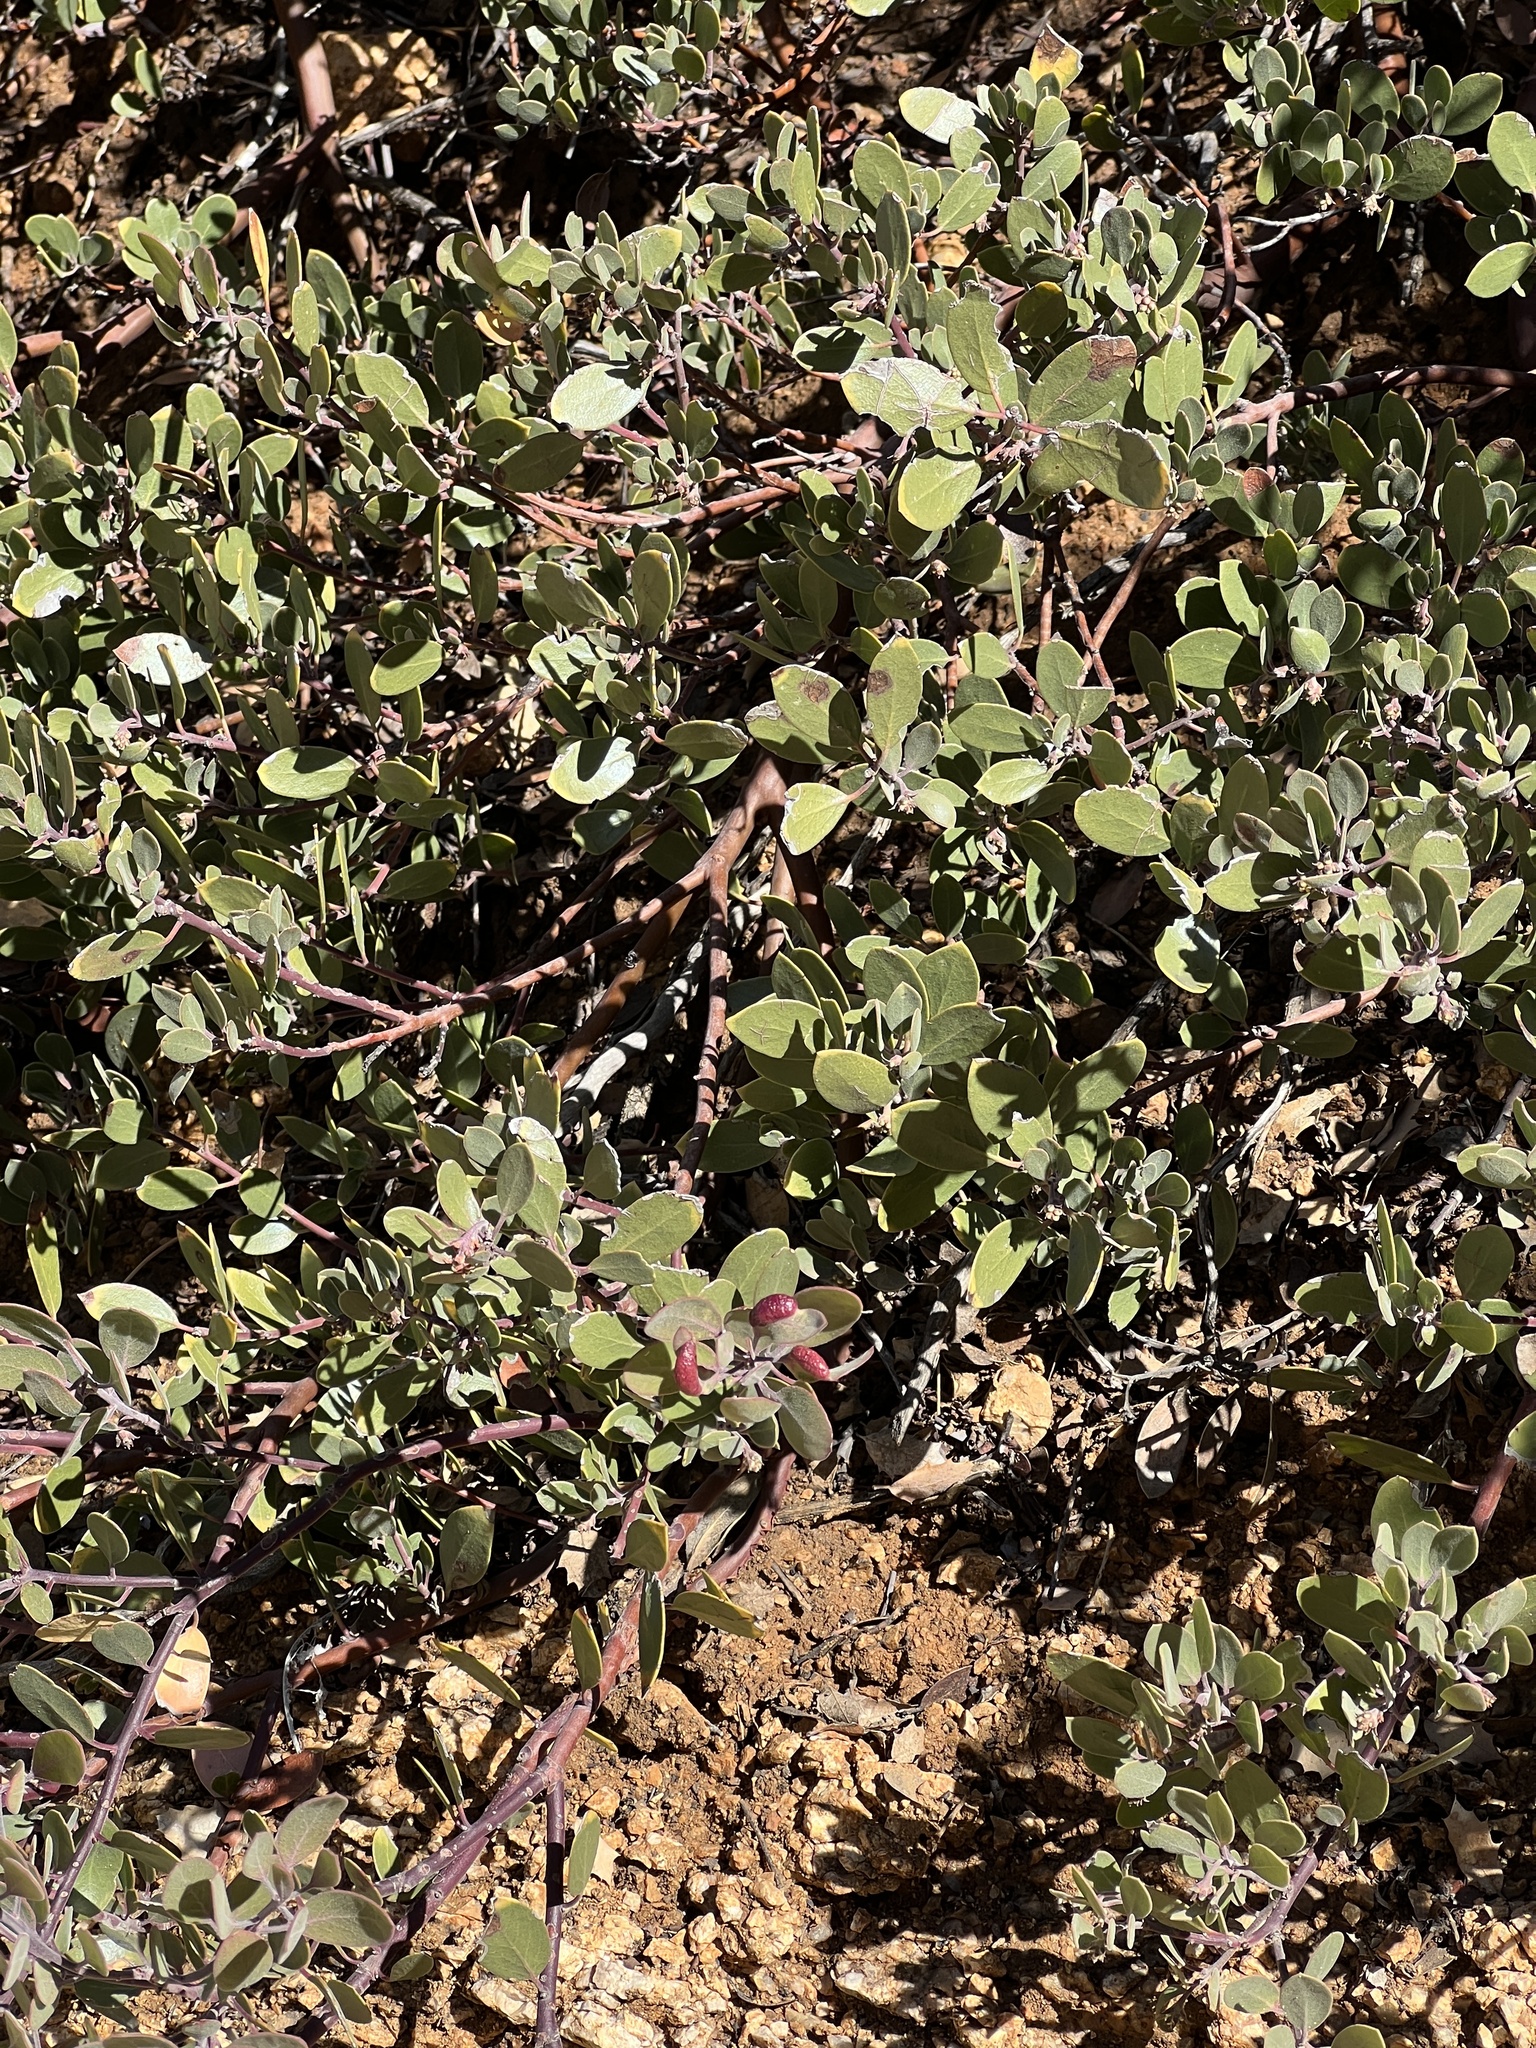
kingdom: Plantae
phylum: Tracheophyta
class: Magnoliopsida
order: Ericales
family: Ericaceae
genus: Arctostaphylos
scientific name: Arctostaphylos pungens
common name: Mexican manzanita
